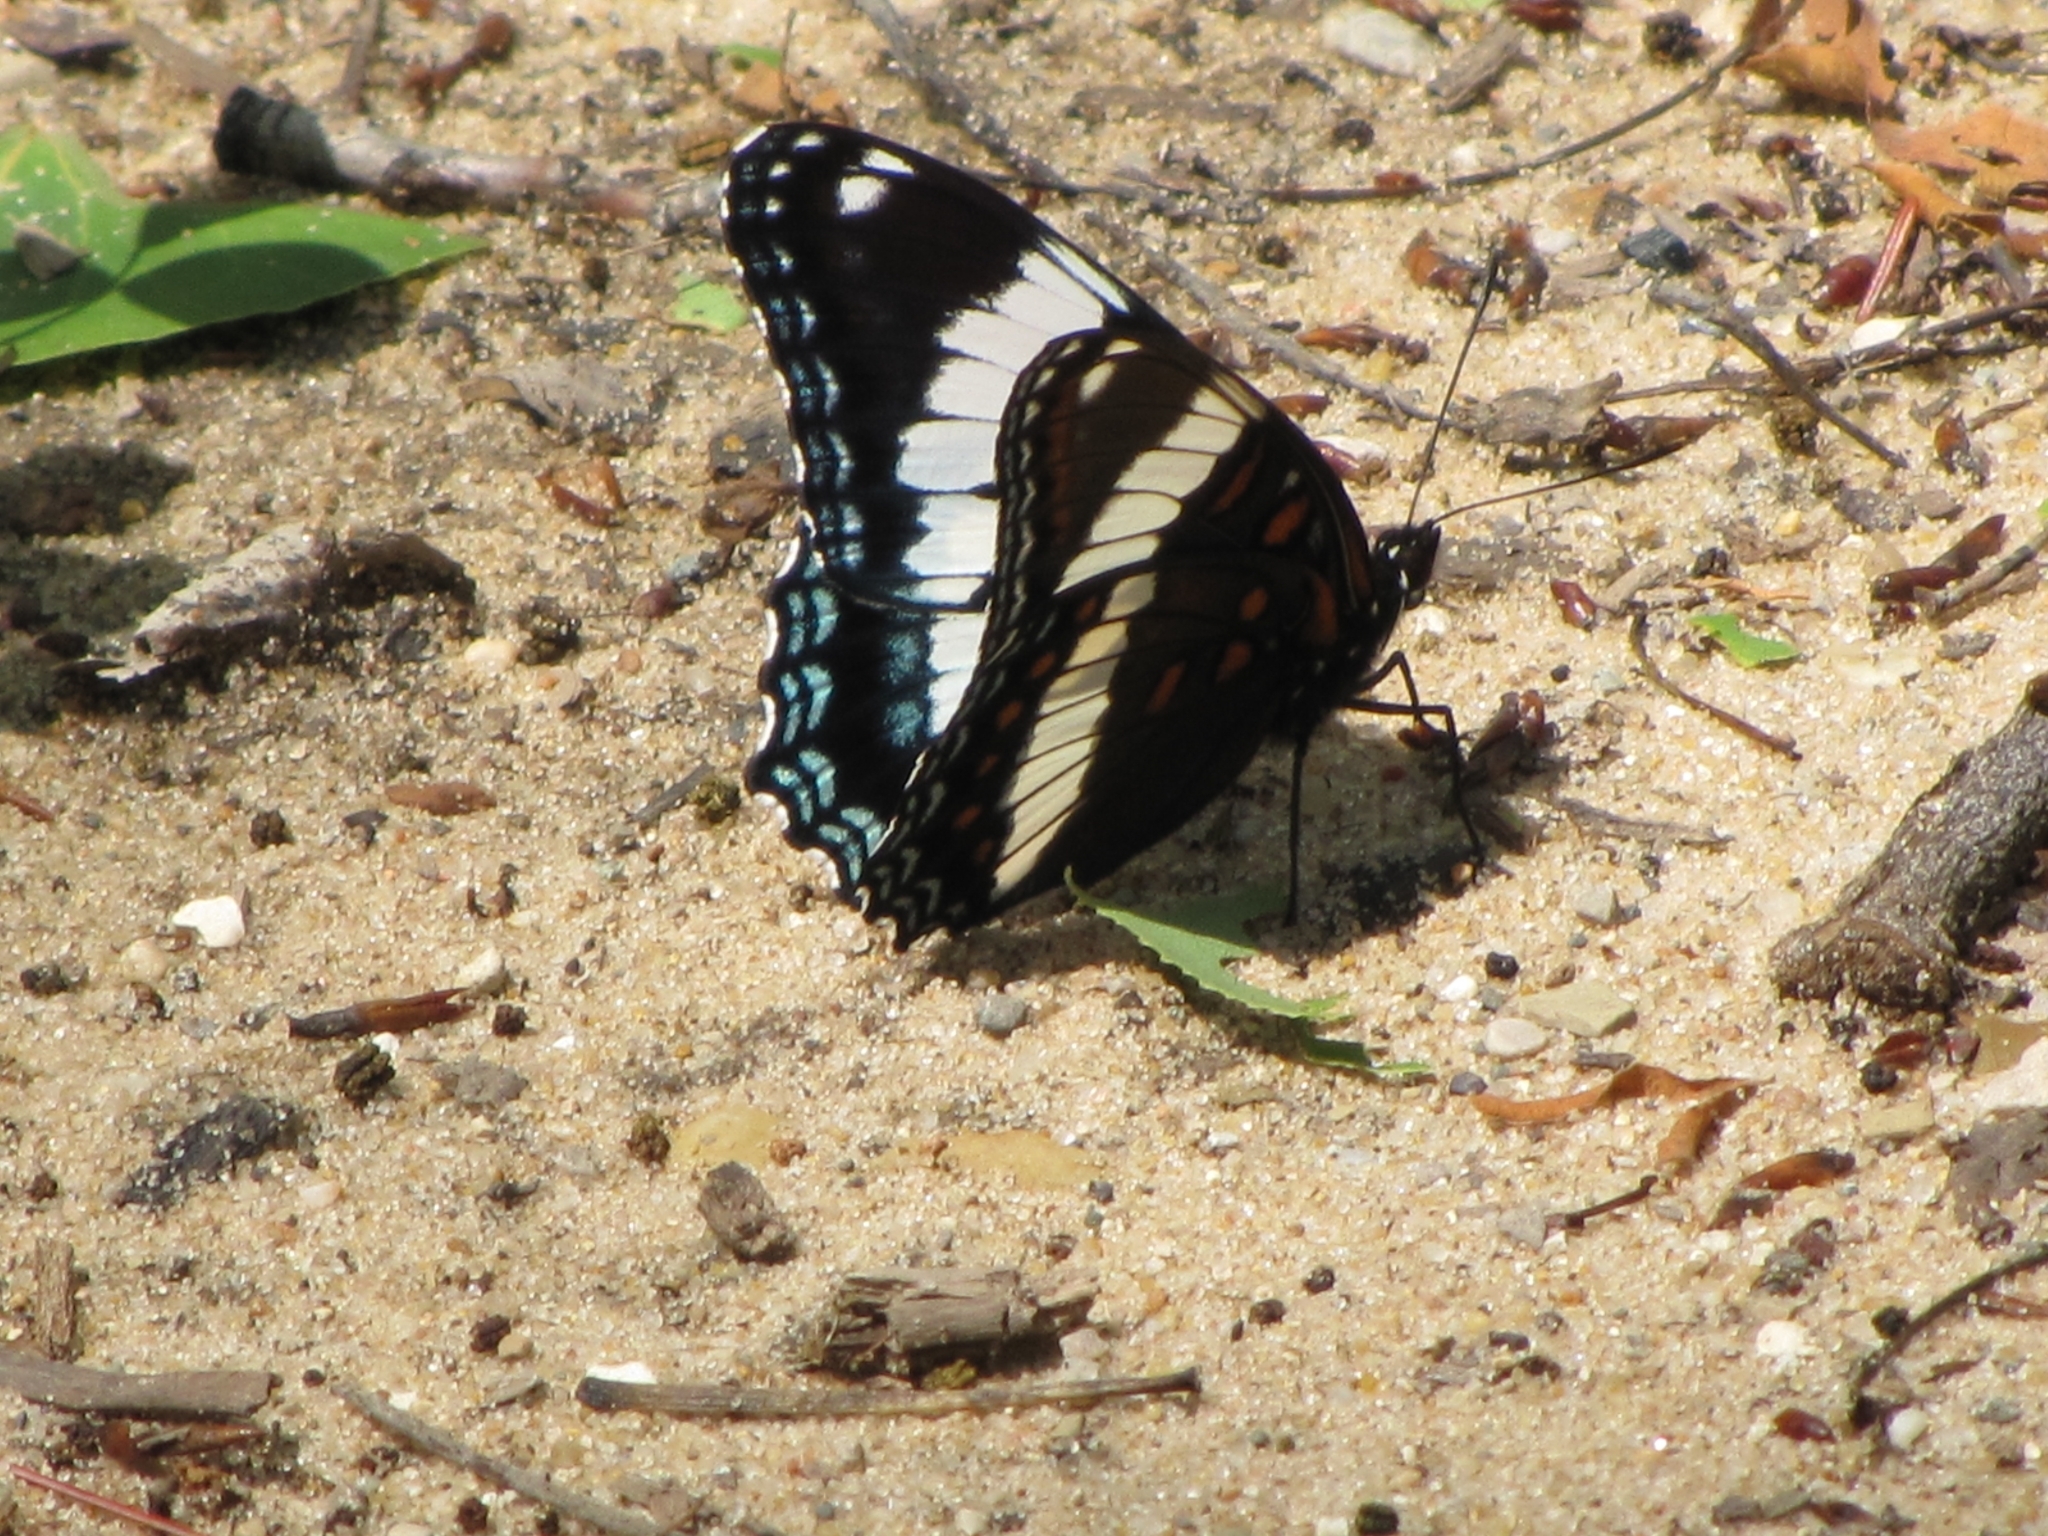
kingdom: Animalia
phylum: Arthropoda
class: Insecta
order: Lepidoptera
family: Nymphalidae
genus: Limenitis
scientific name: Limenitis arthemis
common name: Red-spotted admiral
